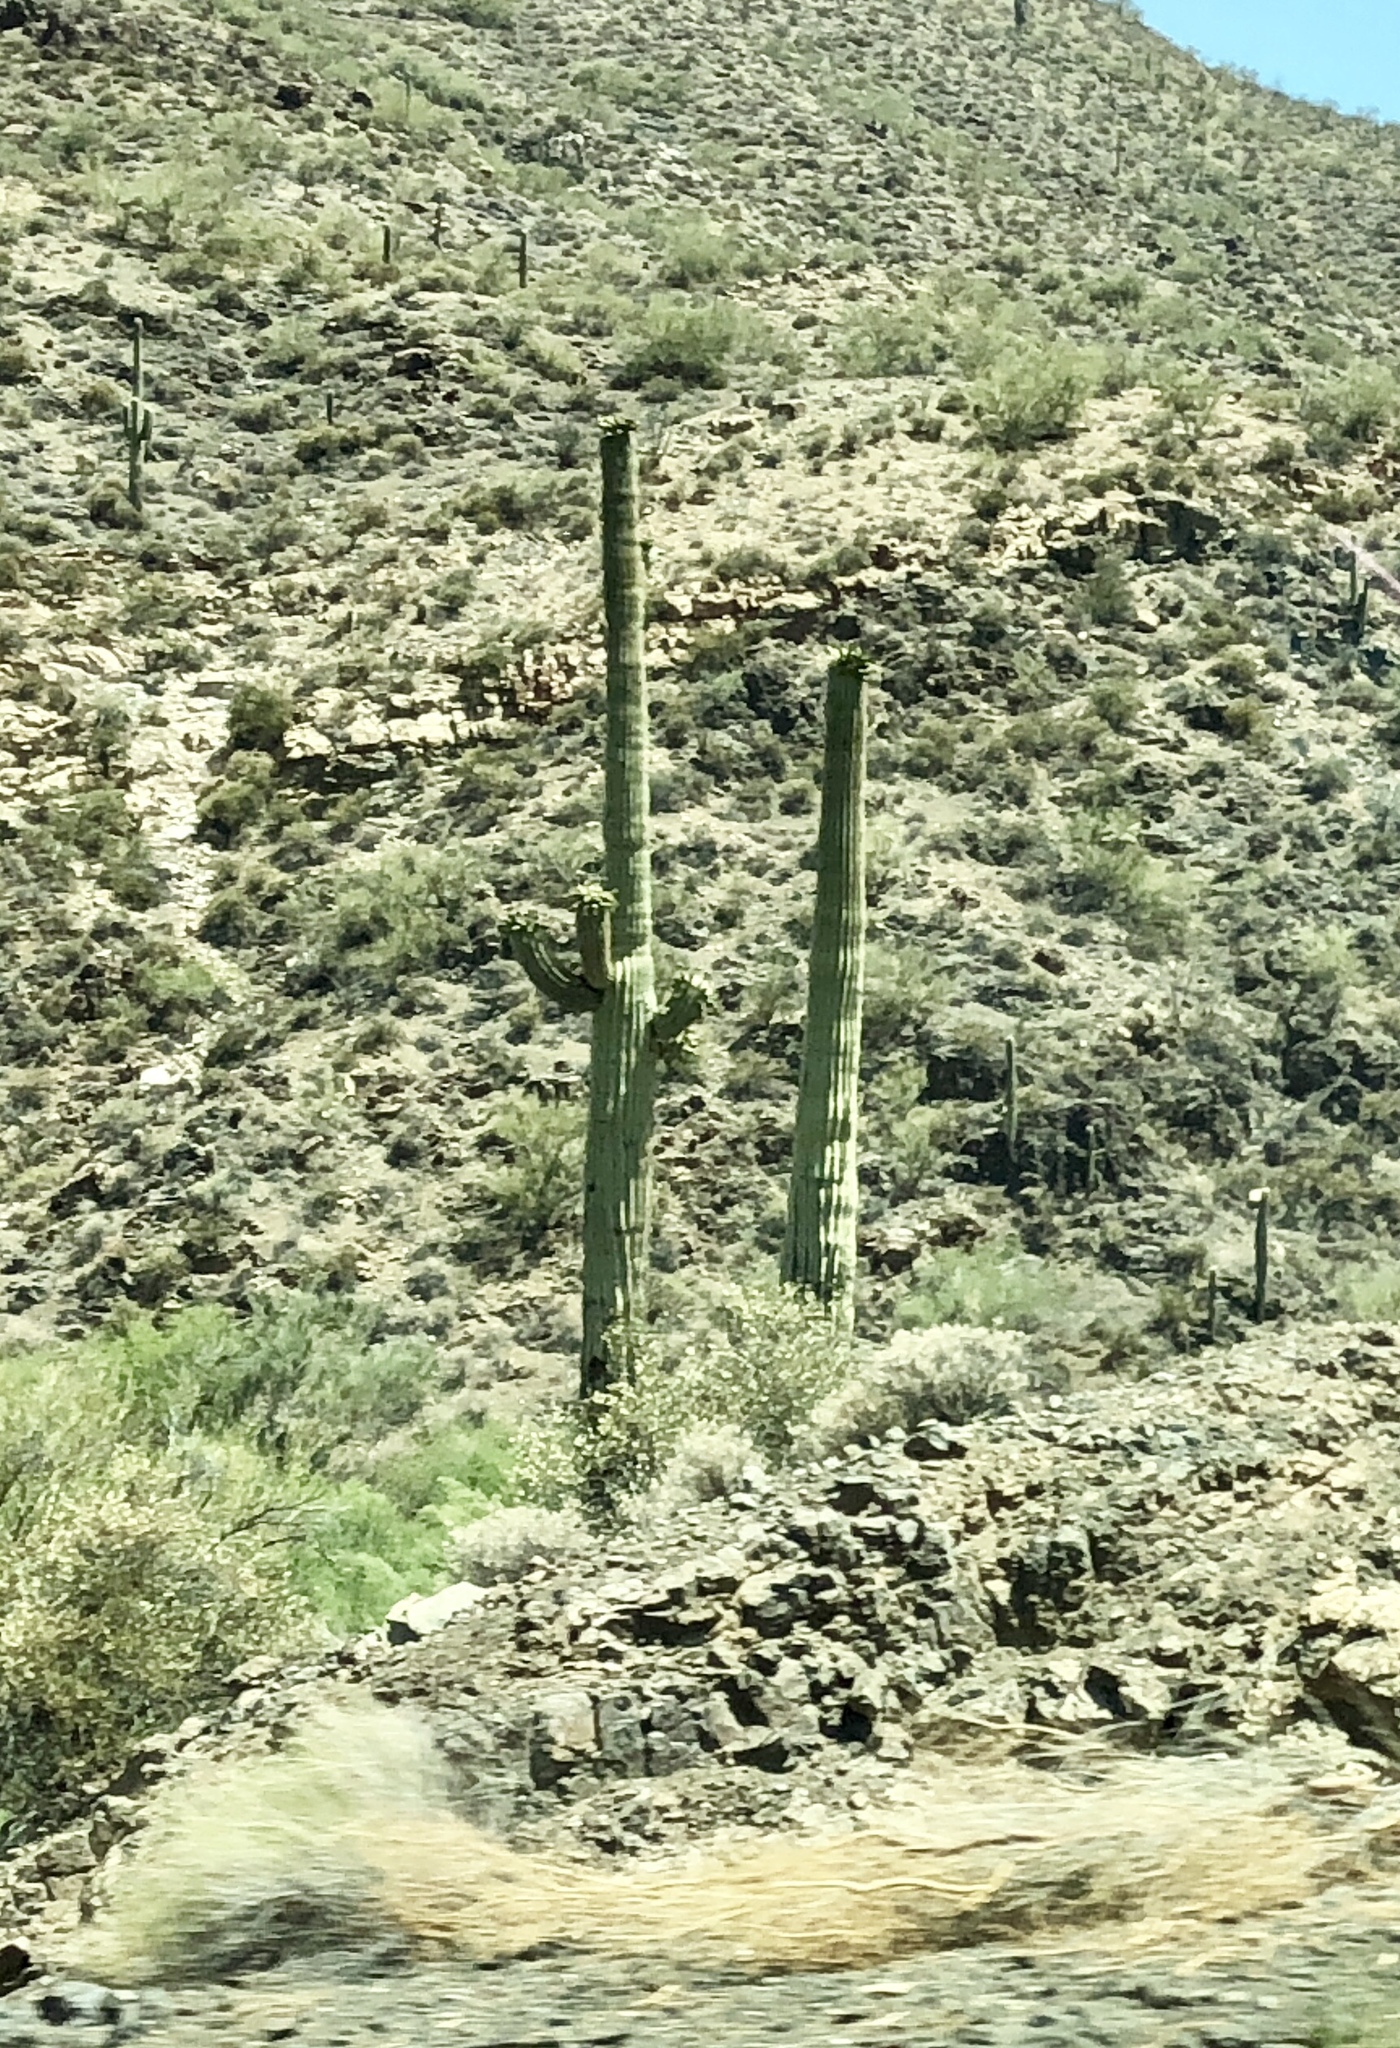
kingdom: Plantae
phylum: Tracheophyta
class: Magnoliopsida
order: Caryophyllales
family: Cactaceae
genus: Carnegiea
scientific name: Carnegiea gigantea
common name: Saguaro
